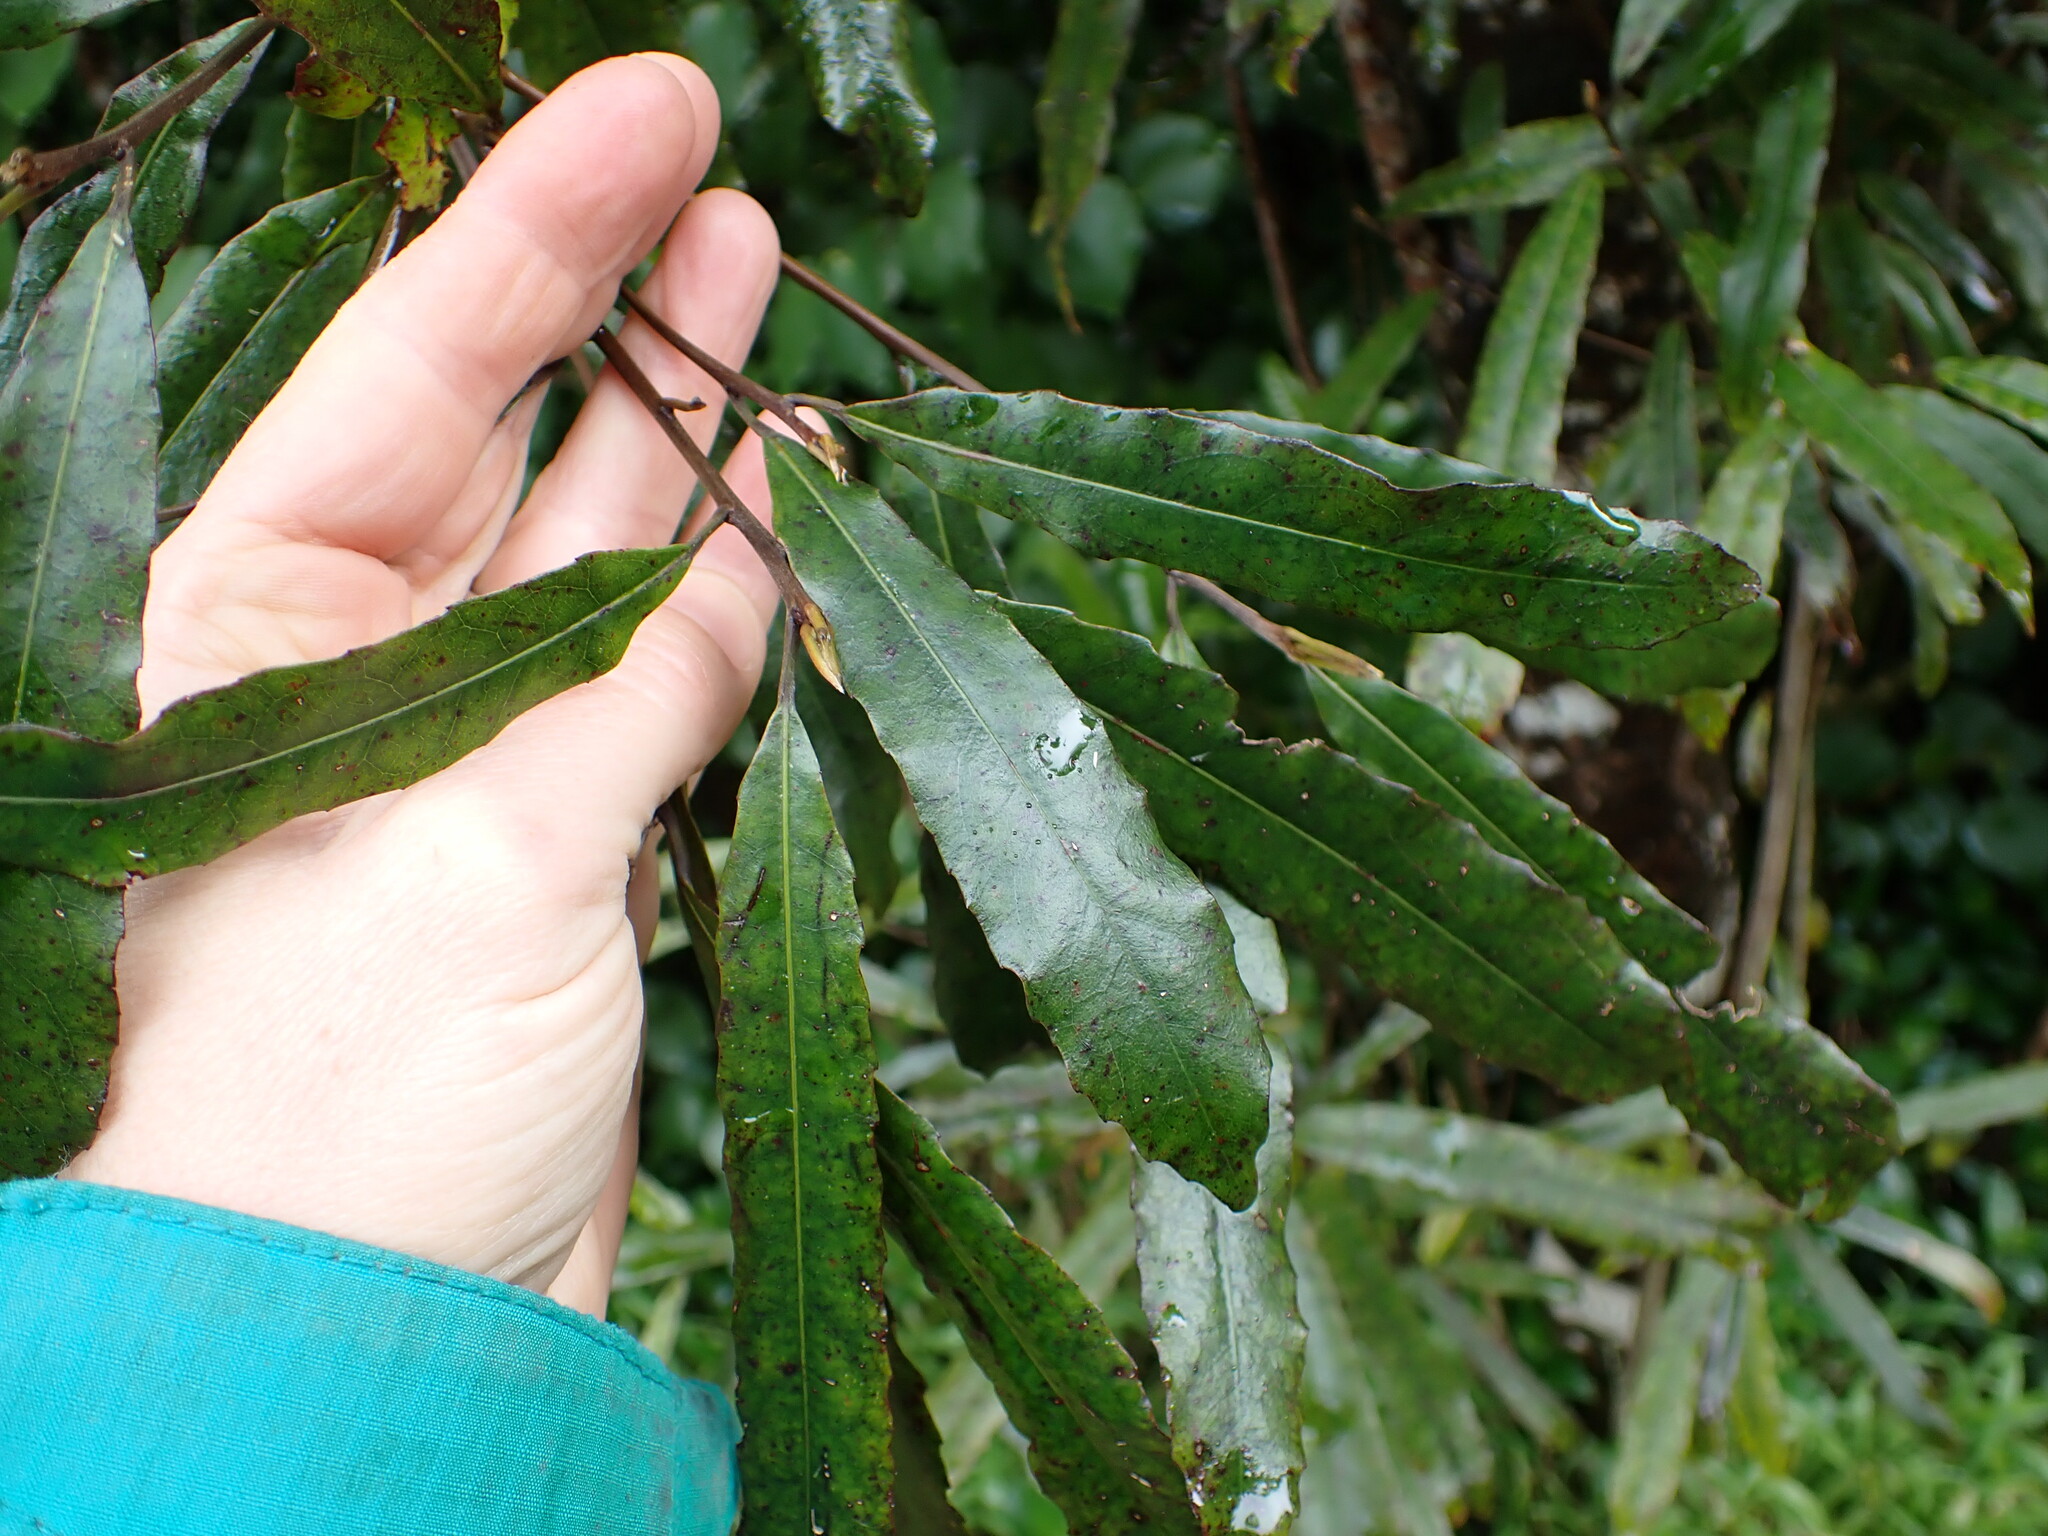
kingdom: Plantae
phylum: Tracheophyta
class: Magnoliopsida
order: Oxalidales
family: Elaeocarpaceae
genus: Elaeocarpus
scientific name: Elaeocarpus dentatus
